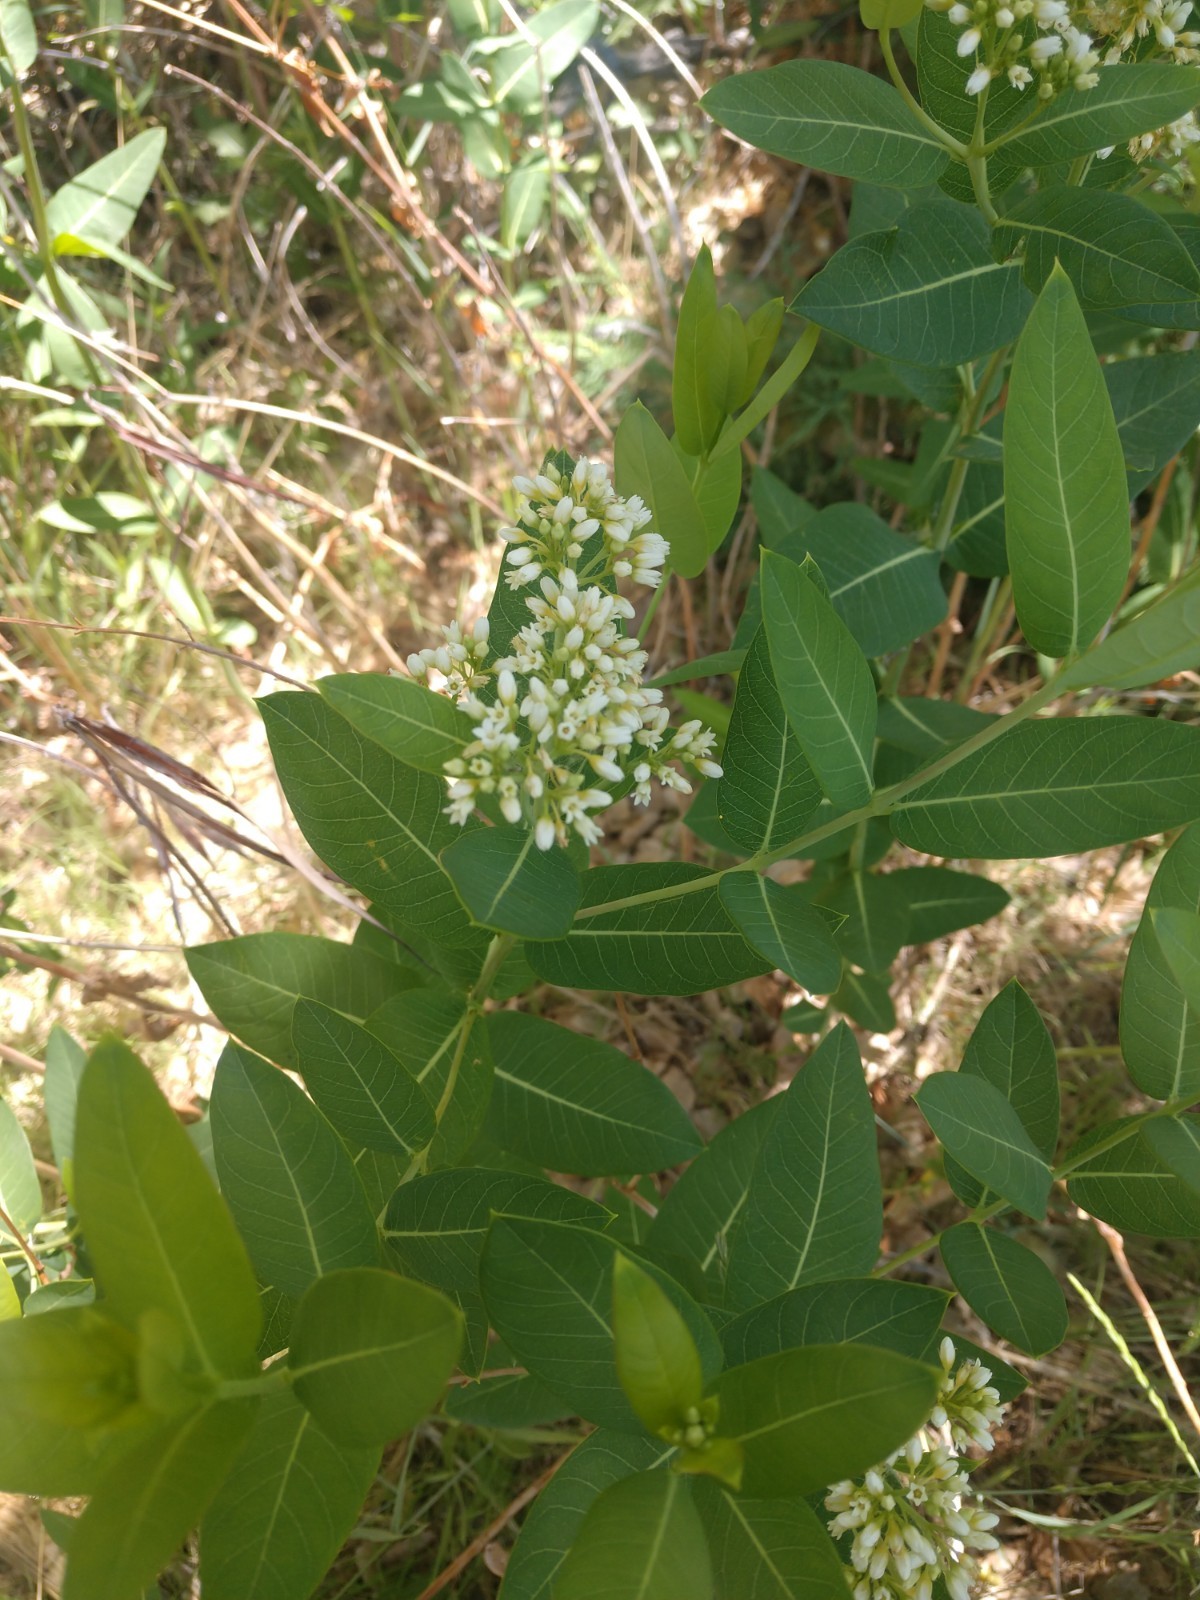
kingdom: Plantae
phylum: Tracheophyta
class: Magnoliopsida
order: Gentianales
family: Apocynaceae
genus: Apocynum
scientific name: Apocynum cannabinum
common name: Hemp dogbane
